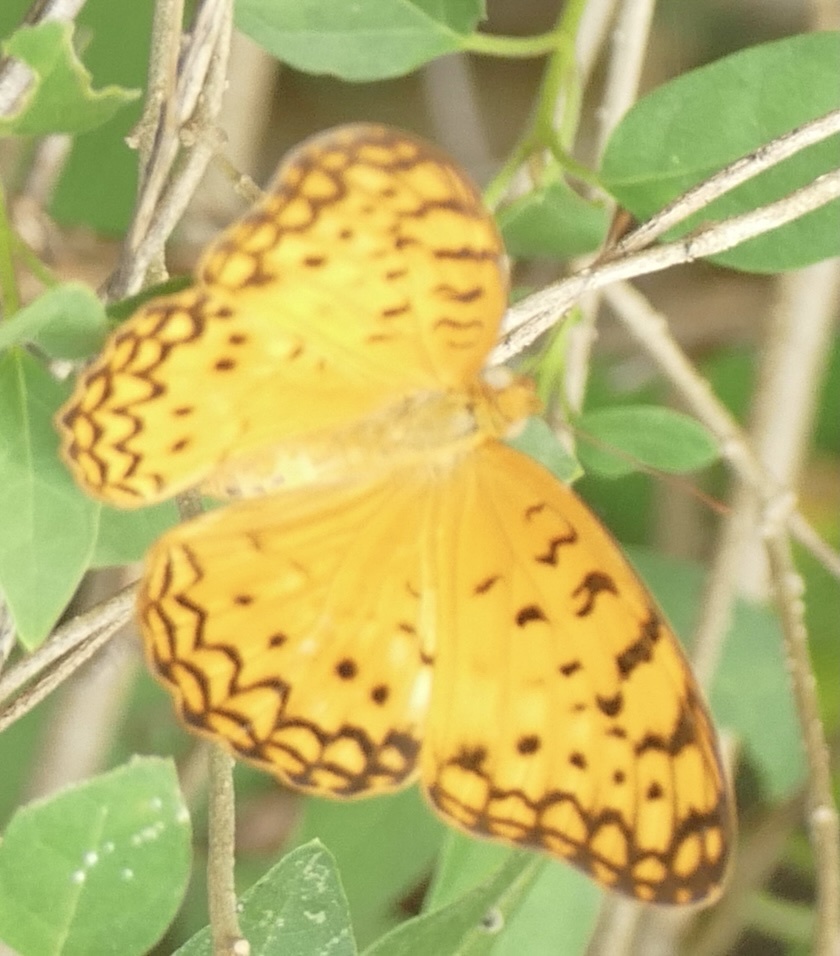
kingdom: Animalia
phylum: Arthropoda
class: Insecta
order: Lepidoptera
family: Nymphalidae
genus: Phalanta
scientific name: Phalanta phalantha
